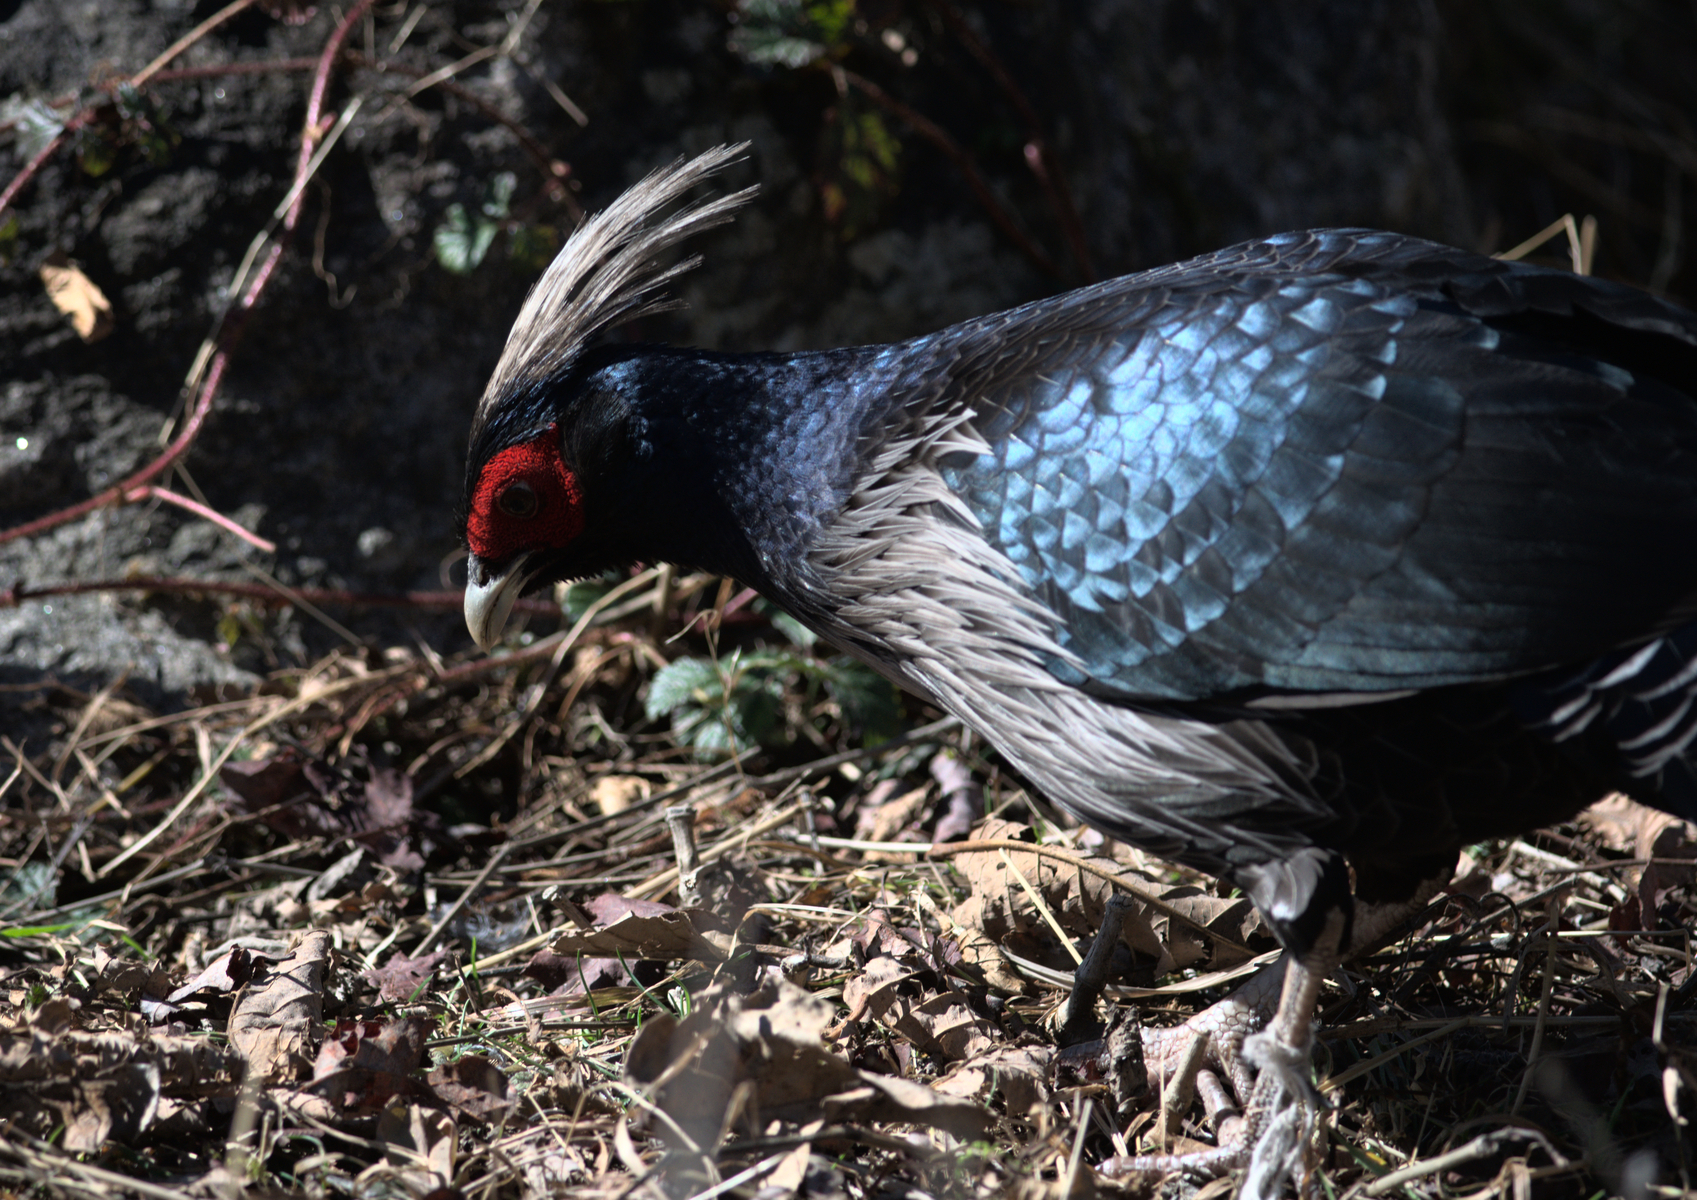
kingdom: Animalia
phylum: Chordata
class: Aves
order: Galliformes
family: Phasianidae
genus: Lophura
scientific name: Lophura leucomelanos
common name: Kalij pheasant
